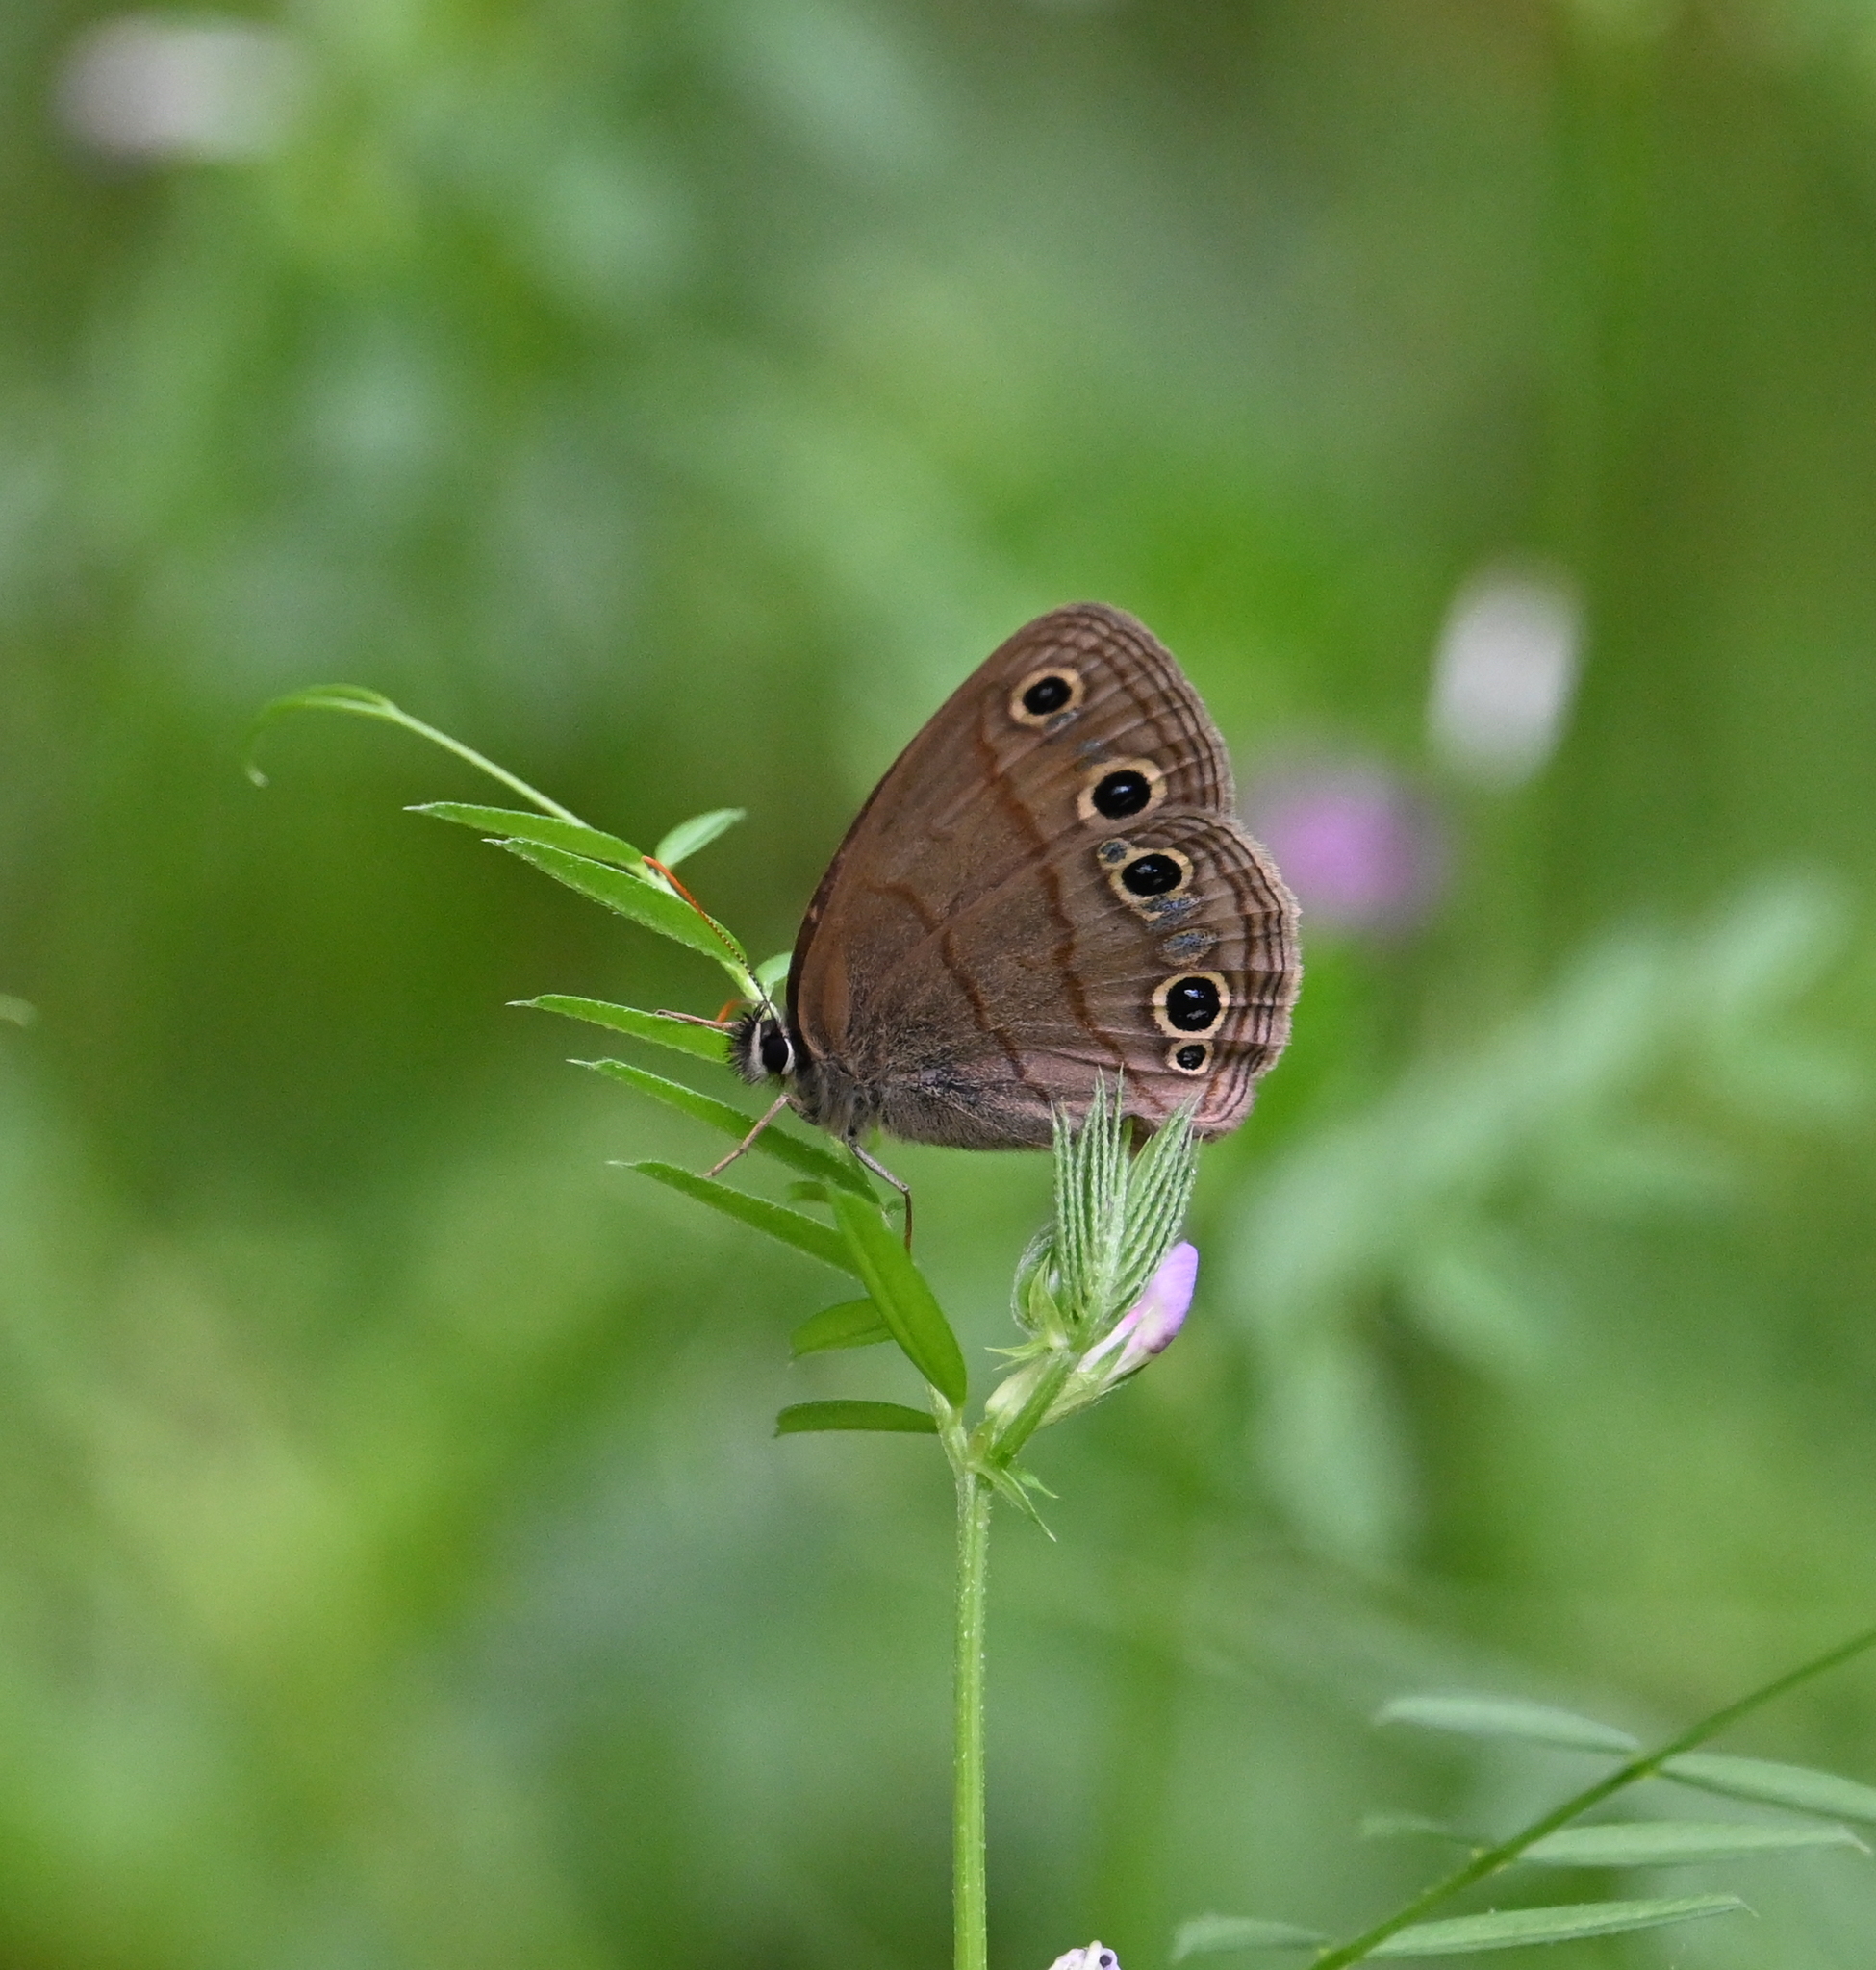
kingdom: Animalia
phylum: Arthropoda
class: Insecta
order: Lepidoptera
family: Nymphalidae
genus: Euptychia
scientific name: Euptychia cymela
